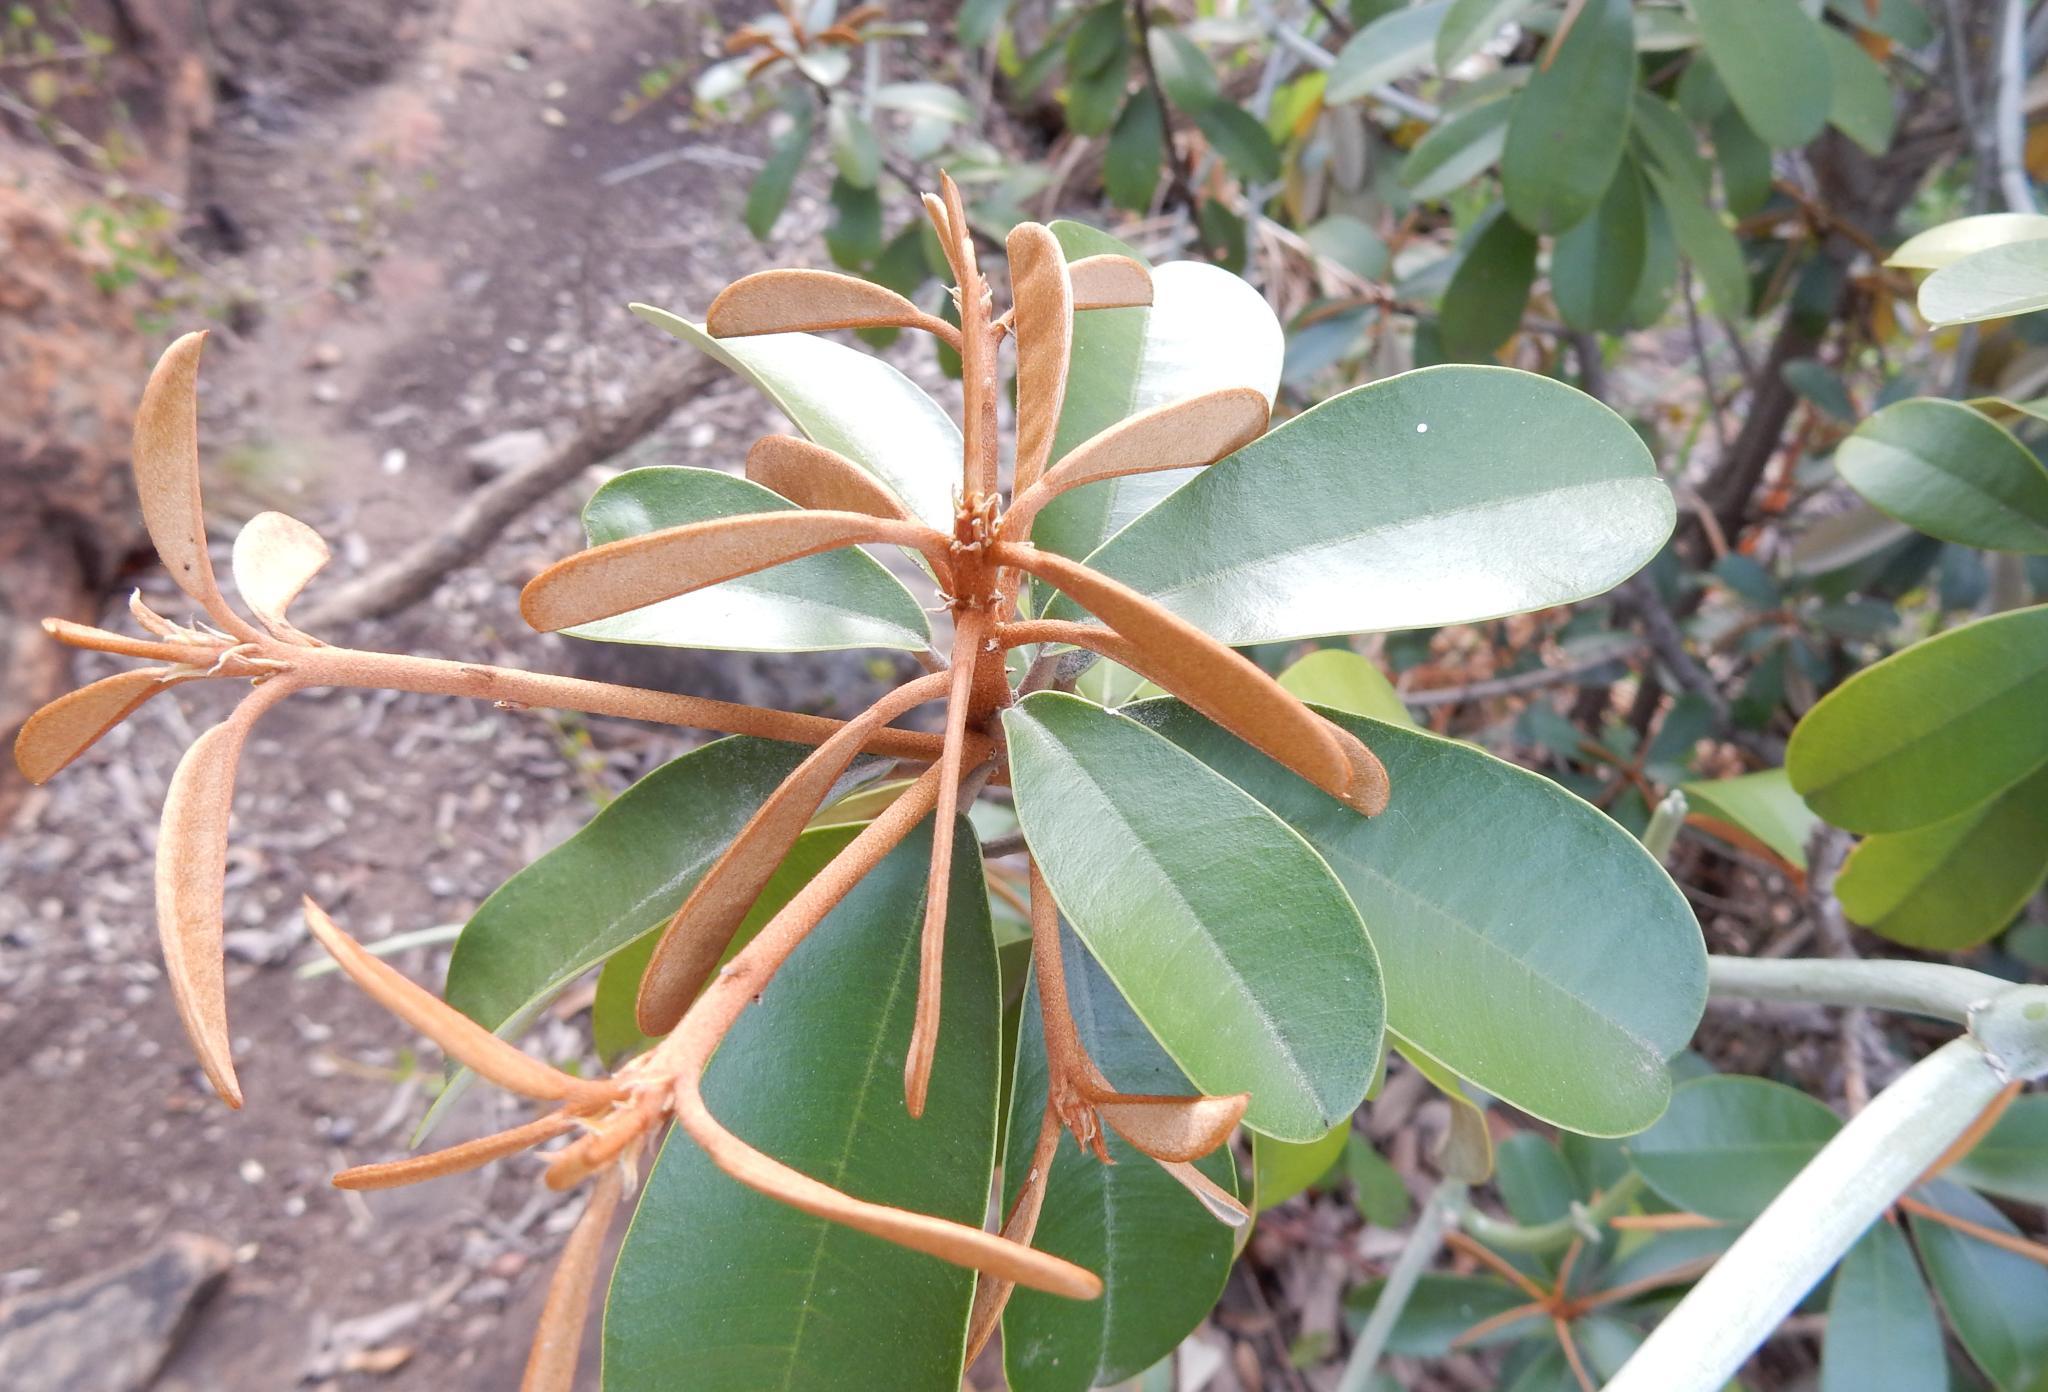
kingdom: Plantae
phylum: Tracheophyta
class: Magnoliopsida
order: Ericales
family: Sapotaceae
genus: Englerophytum
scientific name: Englerophytum magalismontanum
